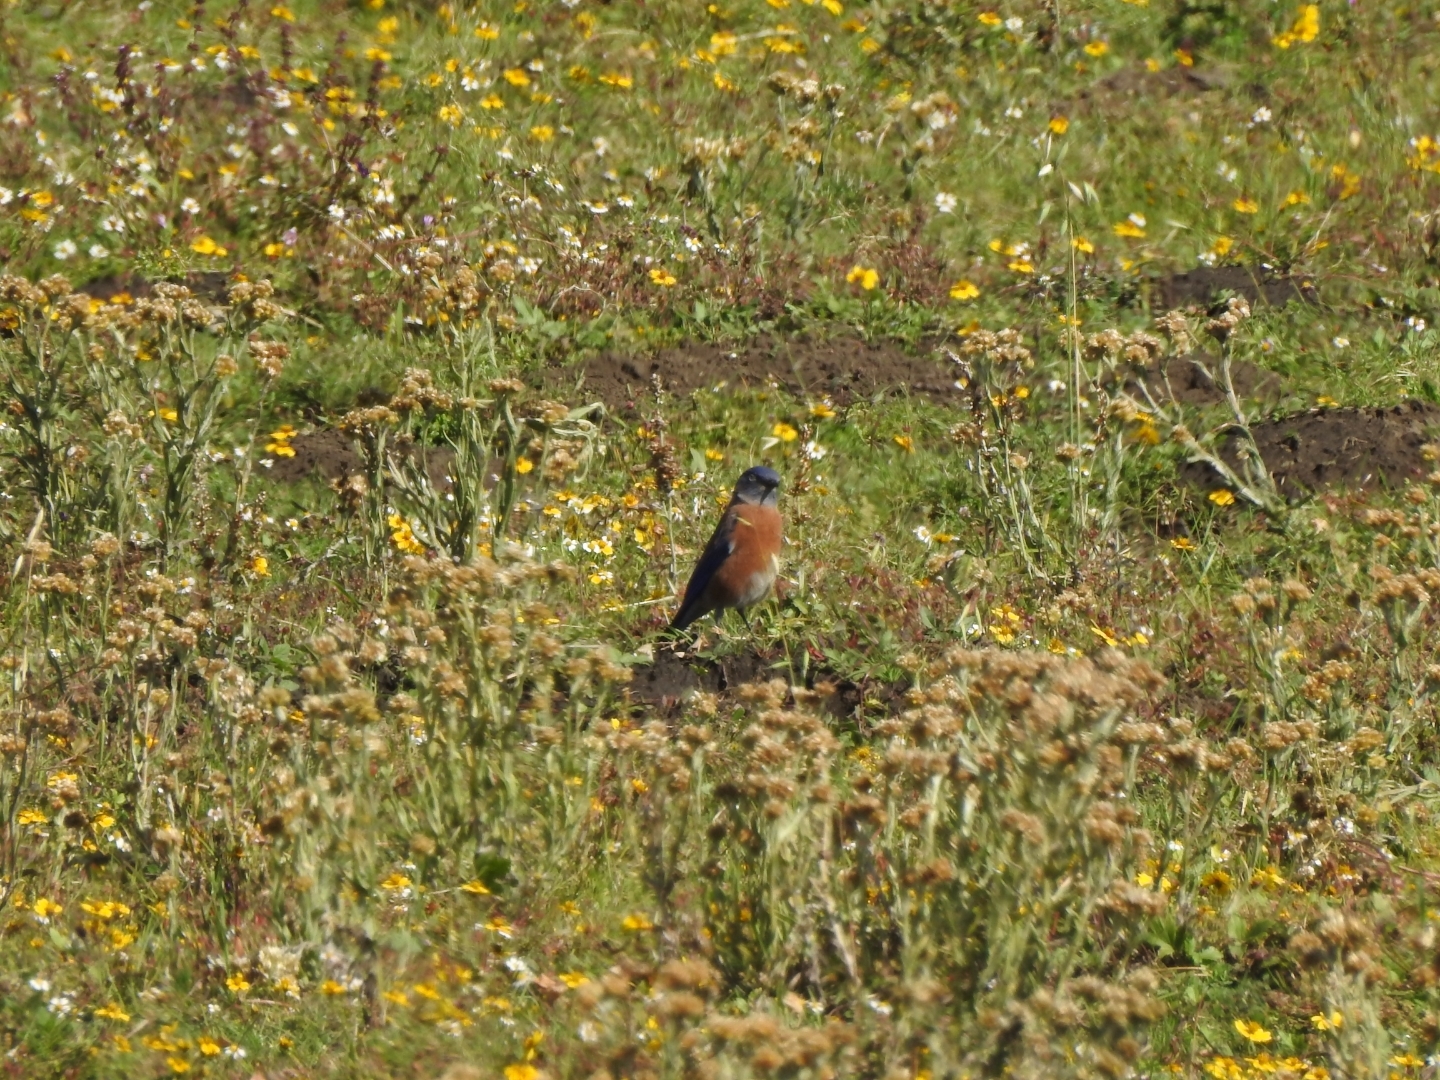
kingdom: Animalia
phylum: Chordata
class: Aves
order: Passeriformes
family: Turdidae
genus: Sialia
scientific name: Sialia mexicana
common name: Western bluebird
